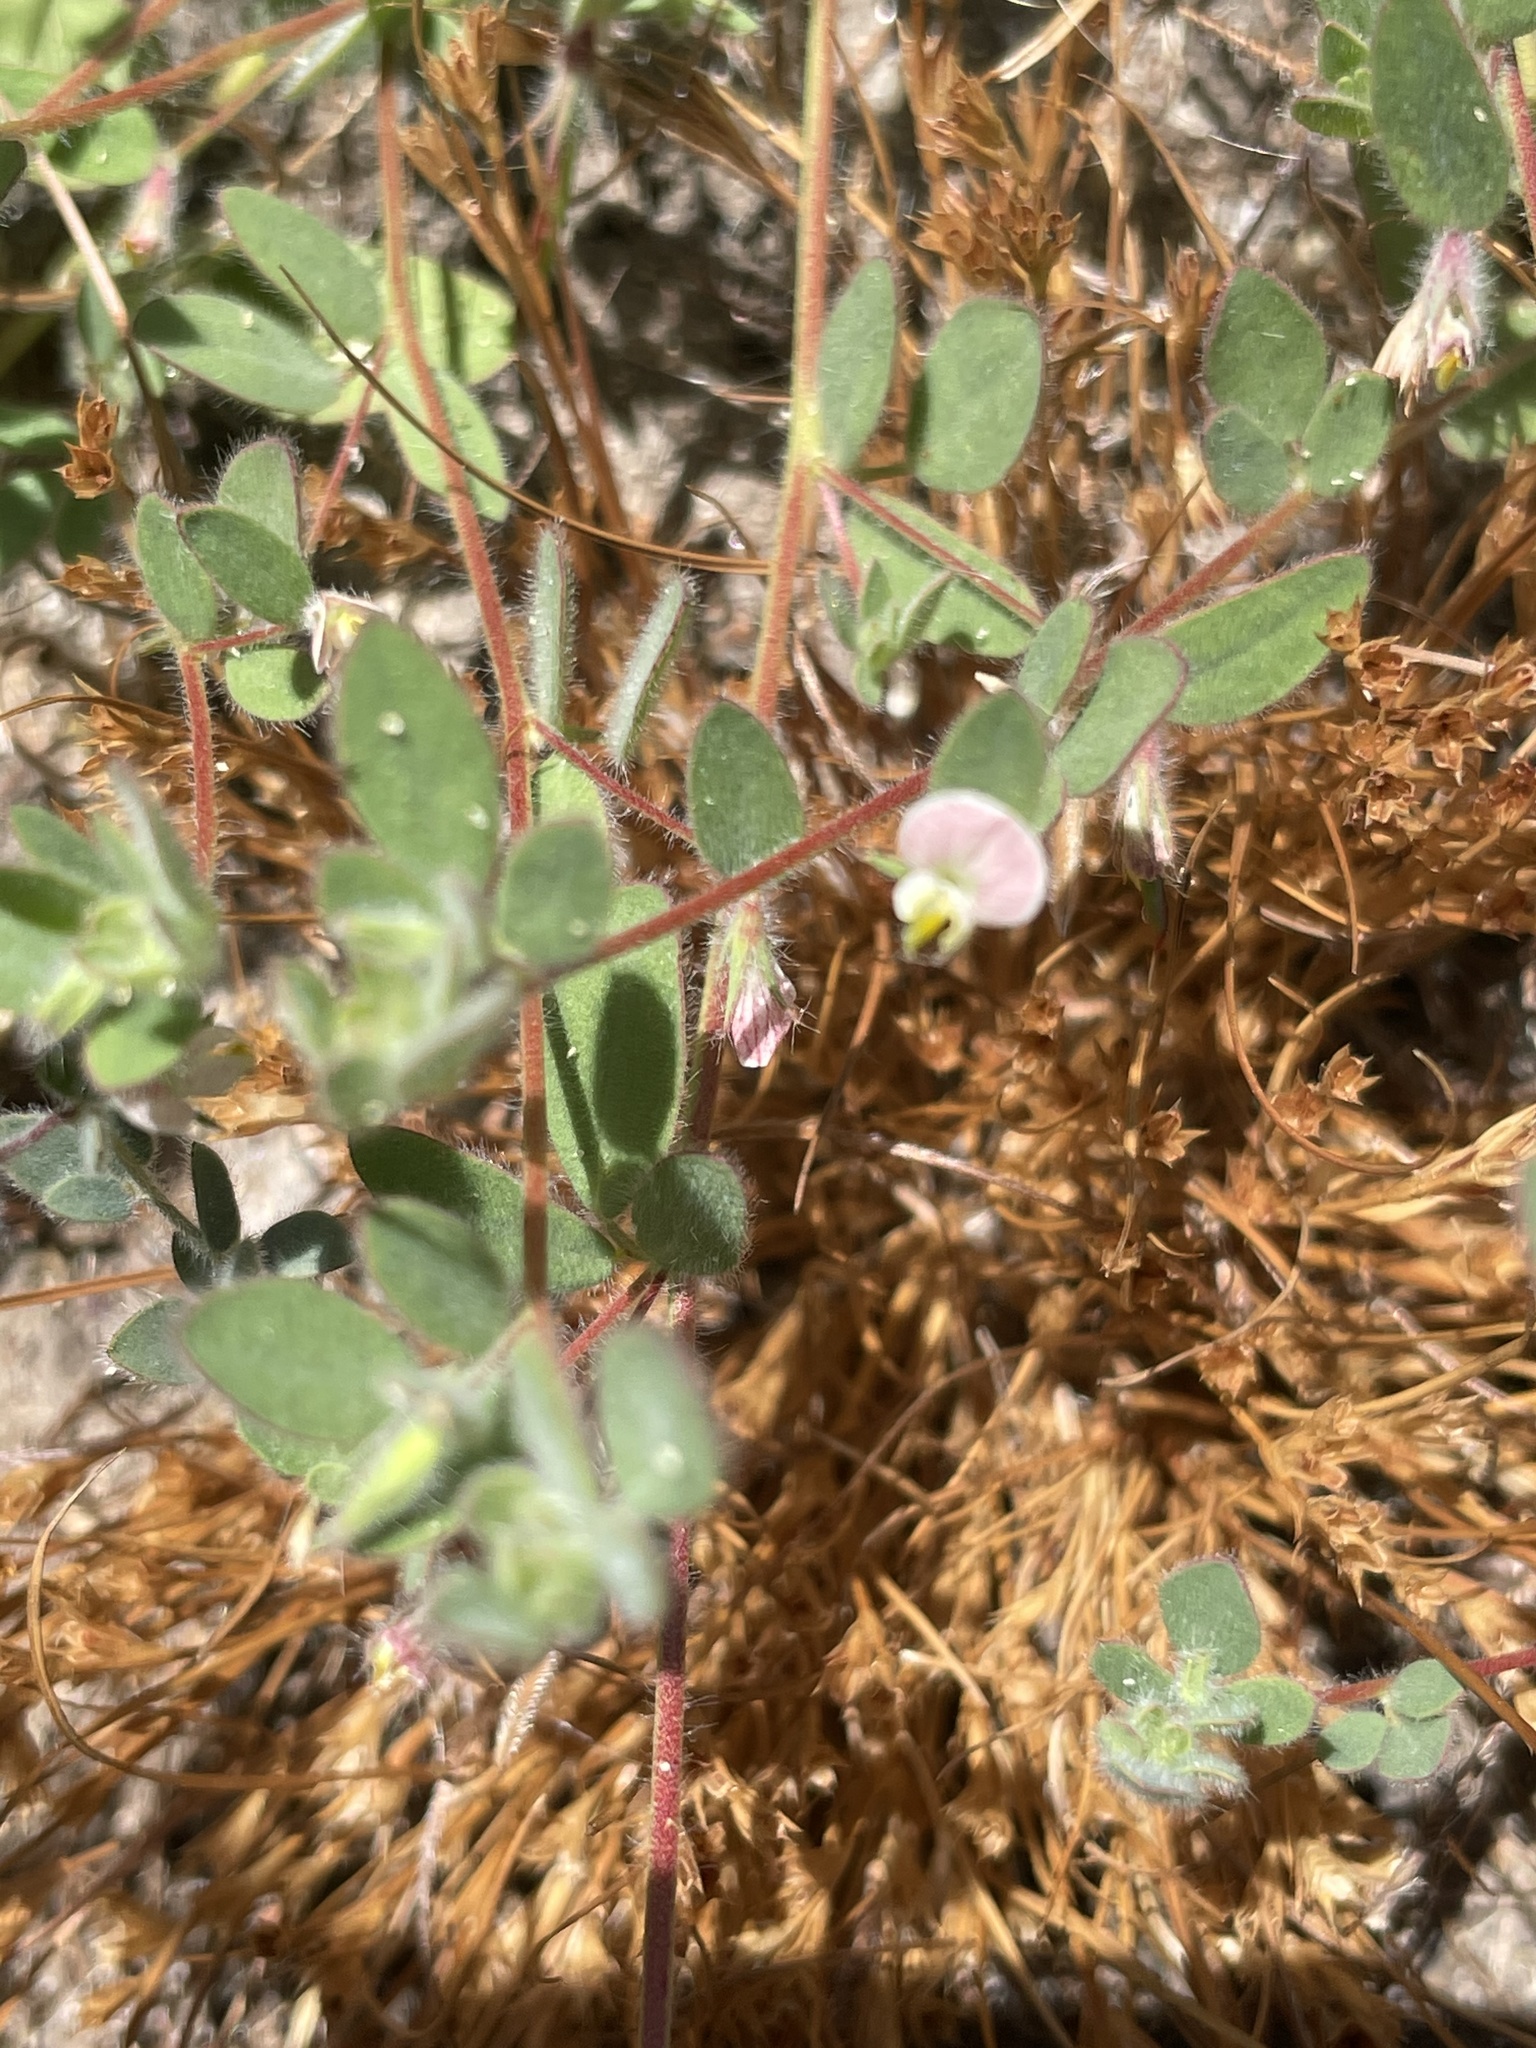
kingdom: Plantae
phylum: Tracheophyta
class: Magnoliopsida
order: Fabales
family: Fabaceae
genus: Acmispon
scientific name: Acmispon americanus
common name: American bird's-foot trefoil
